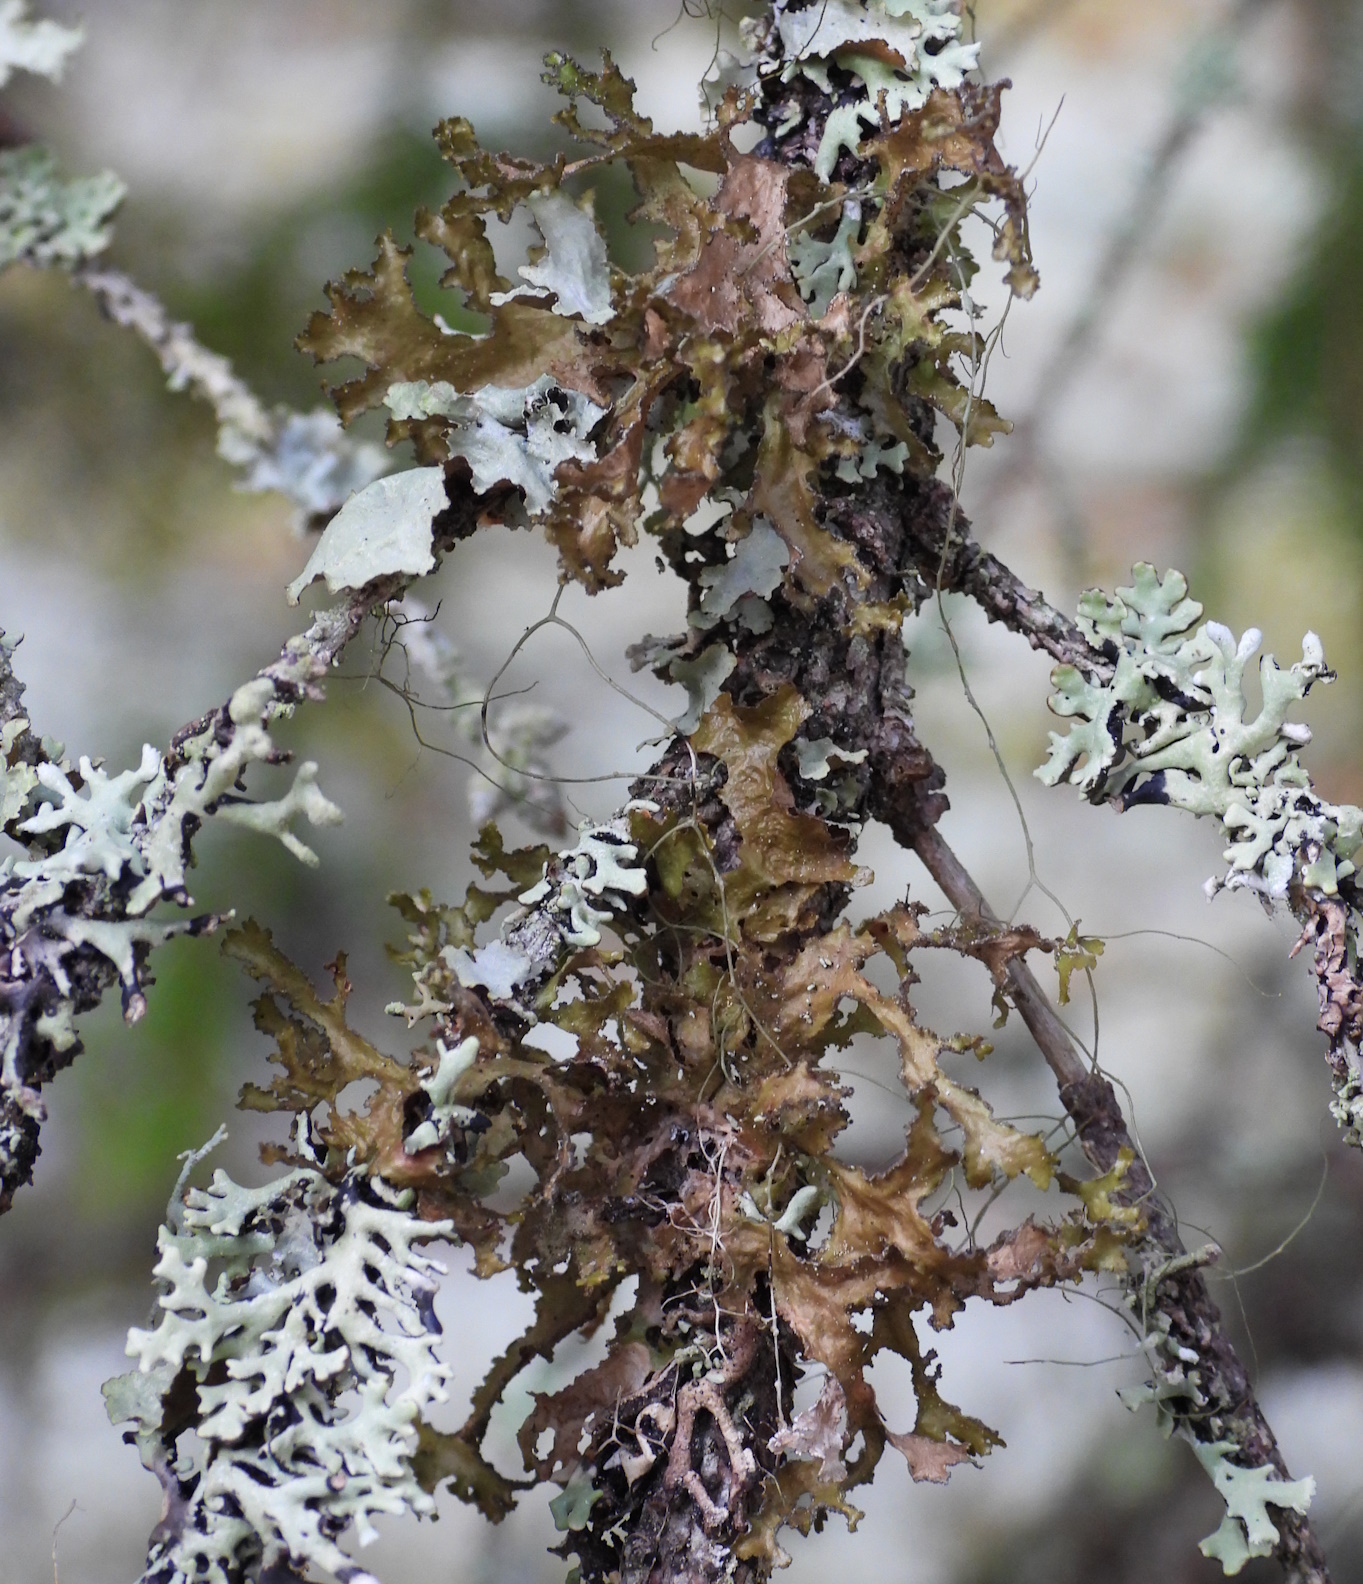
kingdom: Fungi
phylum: Ascomycota
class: Lecanoromycetes
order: Lecanorales
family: Parmeliaceae
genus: Nephromopsis
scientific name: Nephromopsis chlorophylla
